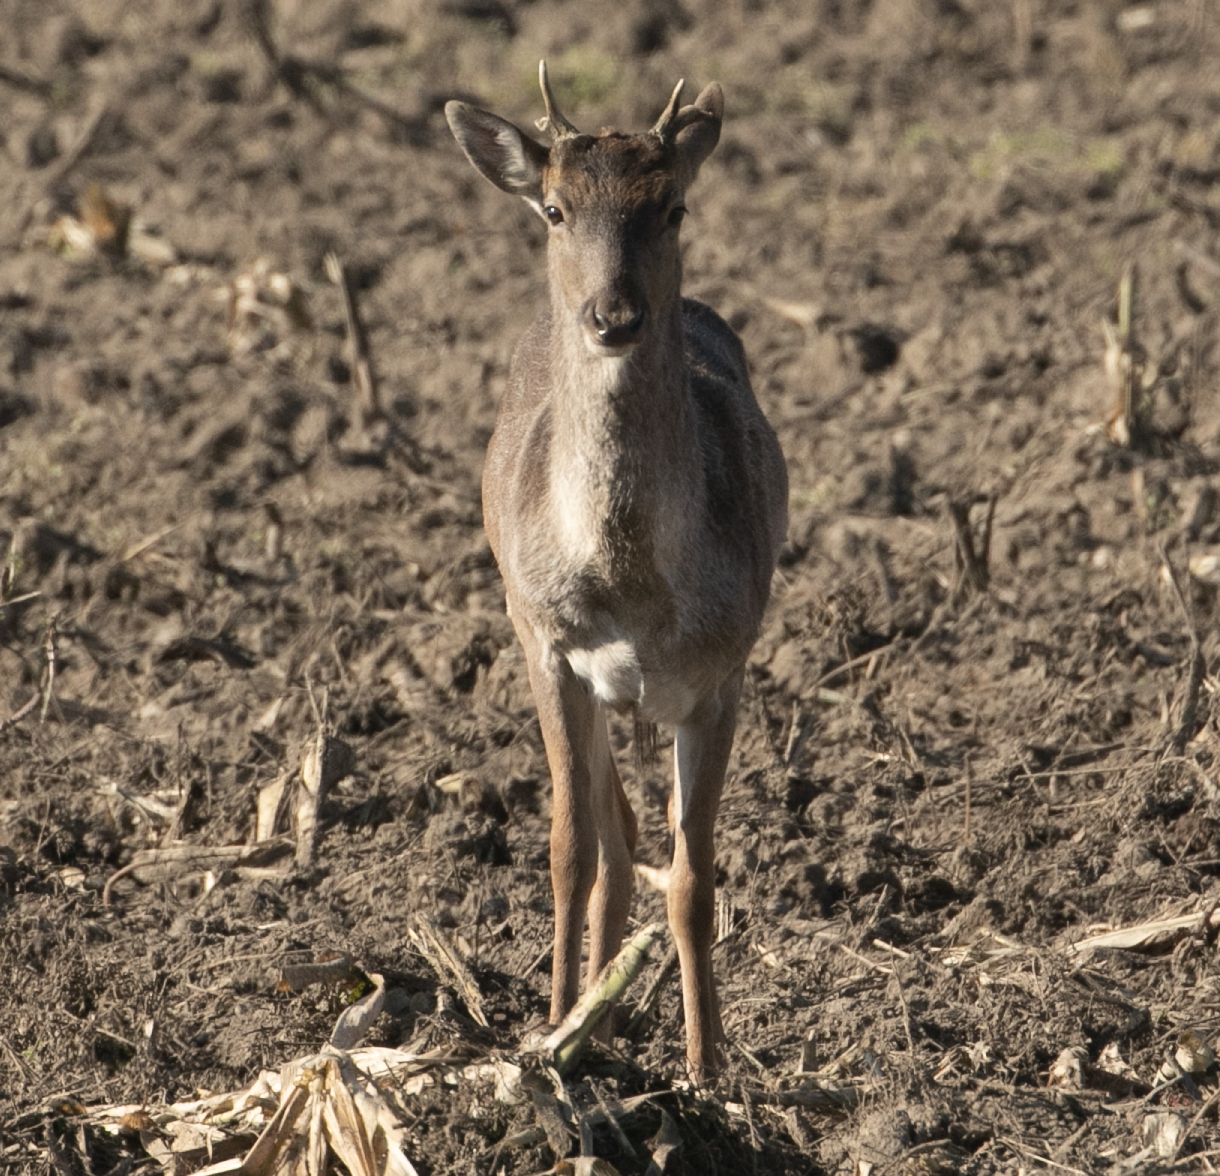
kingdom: Animalia
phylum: Chordata
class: Mammalia
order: Artiodactyla
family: Cervidae
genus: Dama
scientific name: Dama dama
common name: Fallow deer
